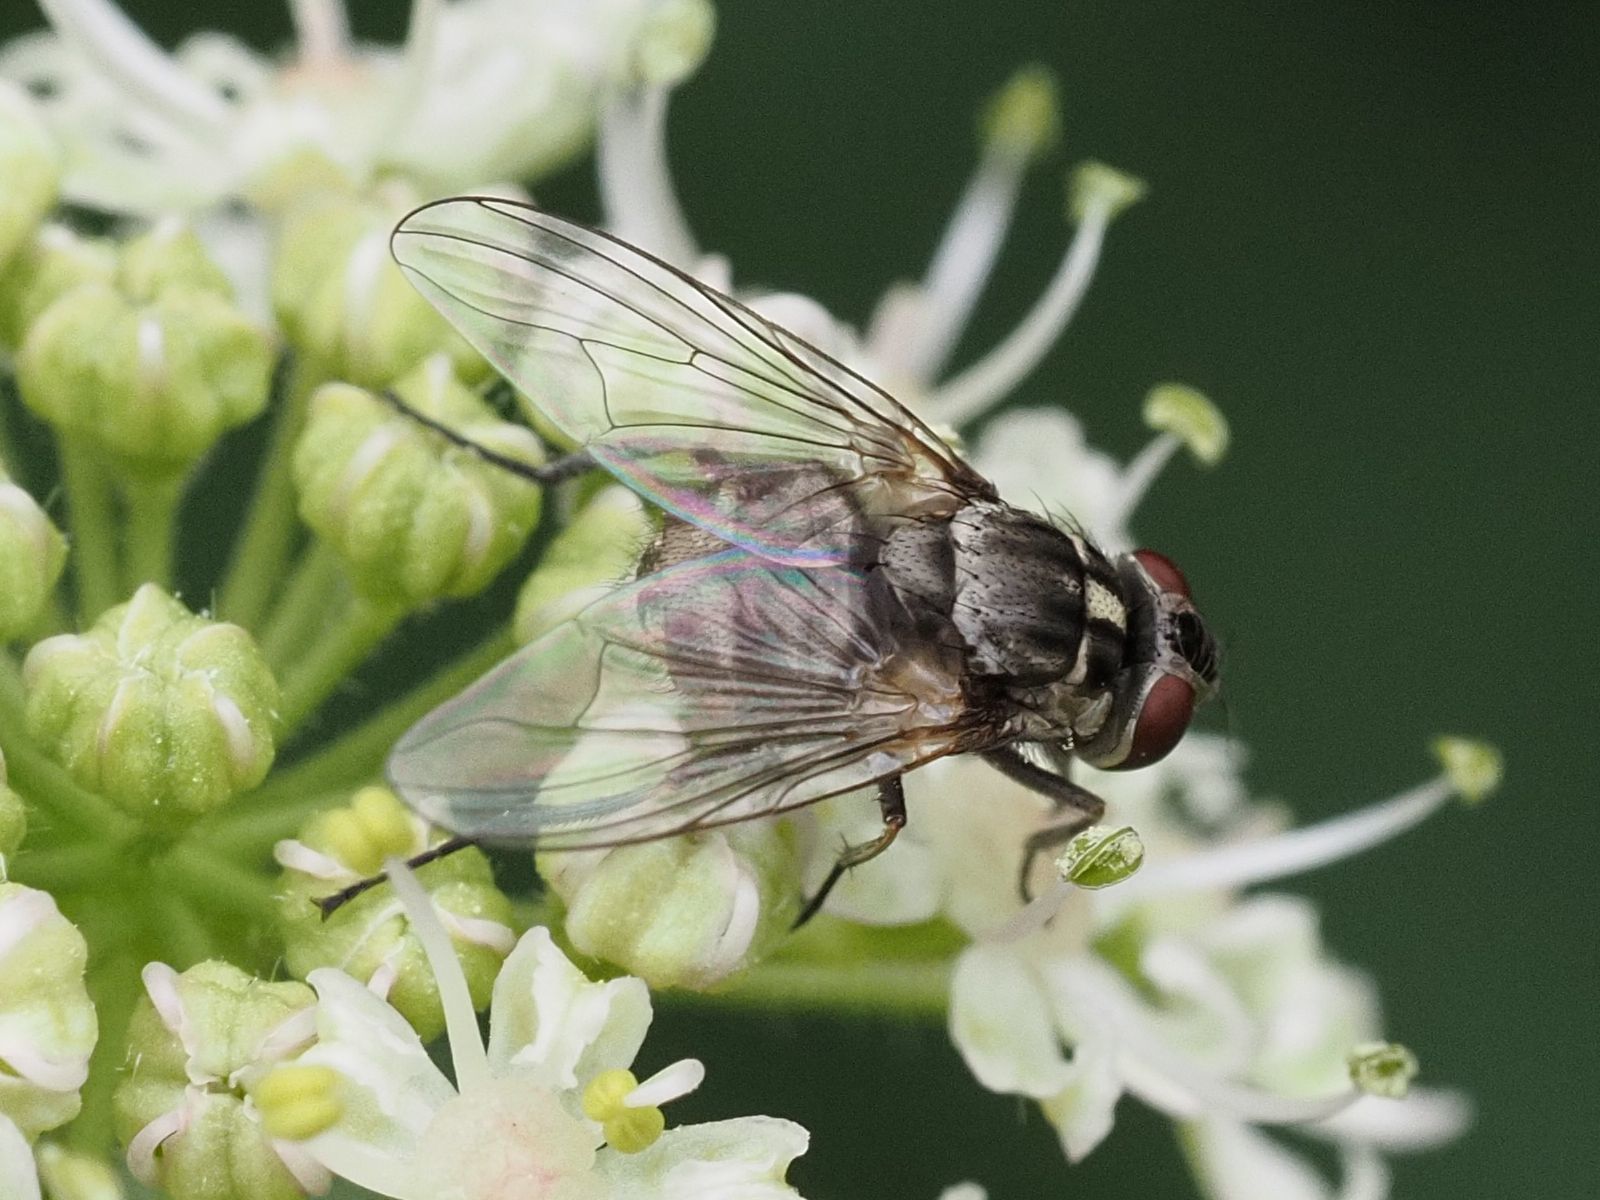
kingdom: Animalia
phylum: Arthropoda
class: Insecta
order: Diptera
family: Muscidae
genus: Stomoxys
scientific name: Stomoxys calcitrans
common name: Stable fly
